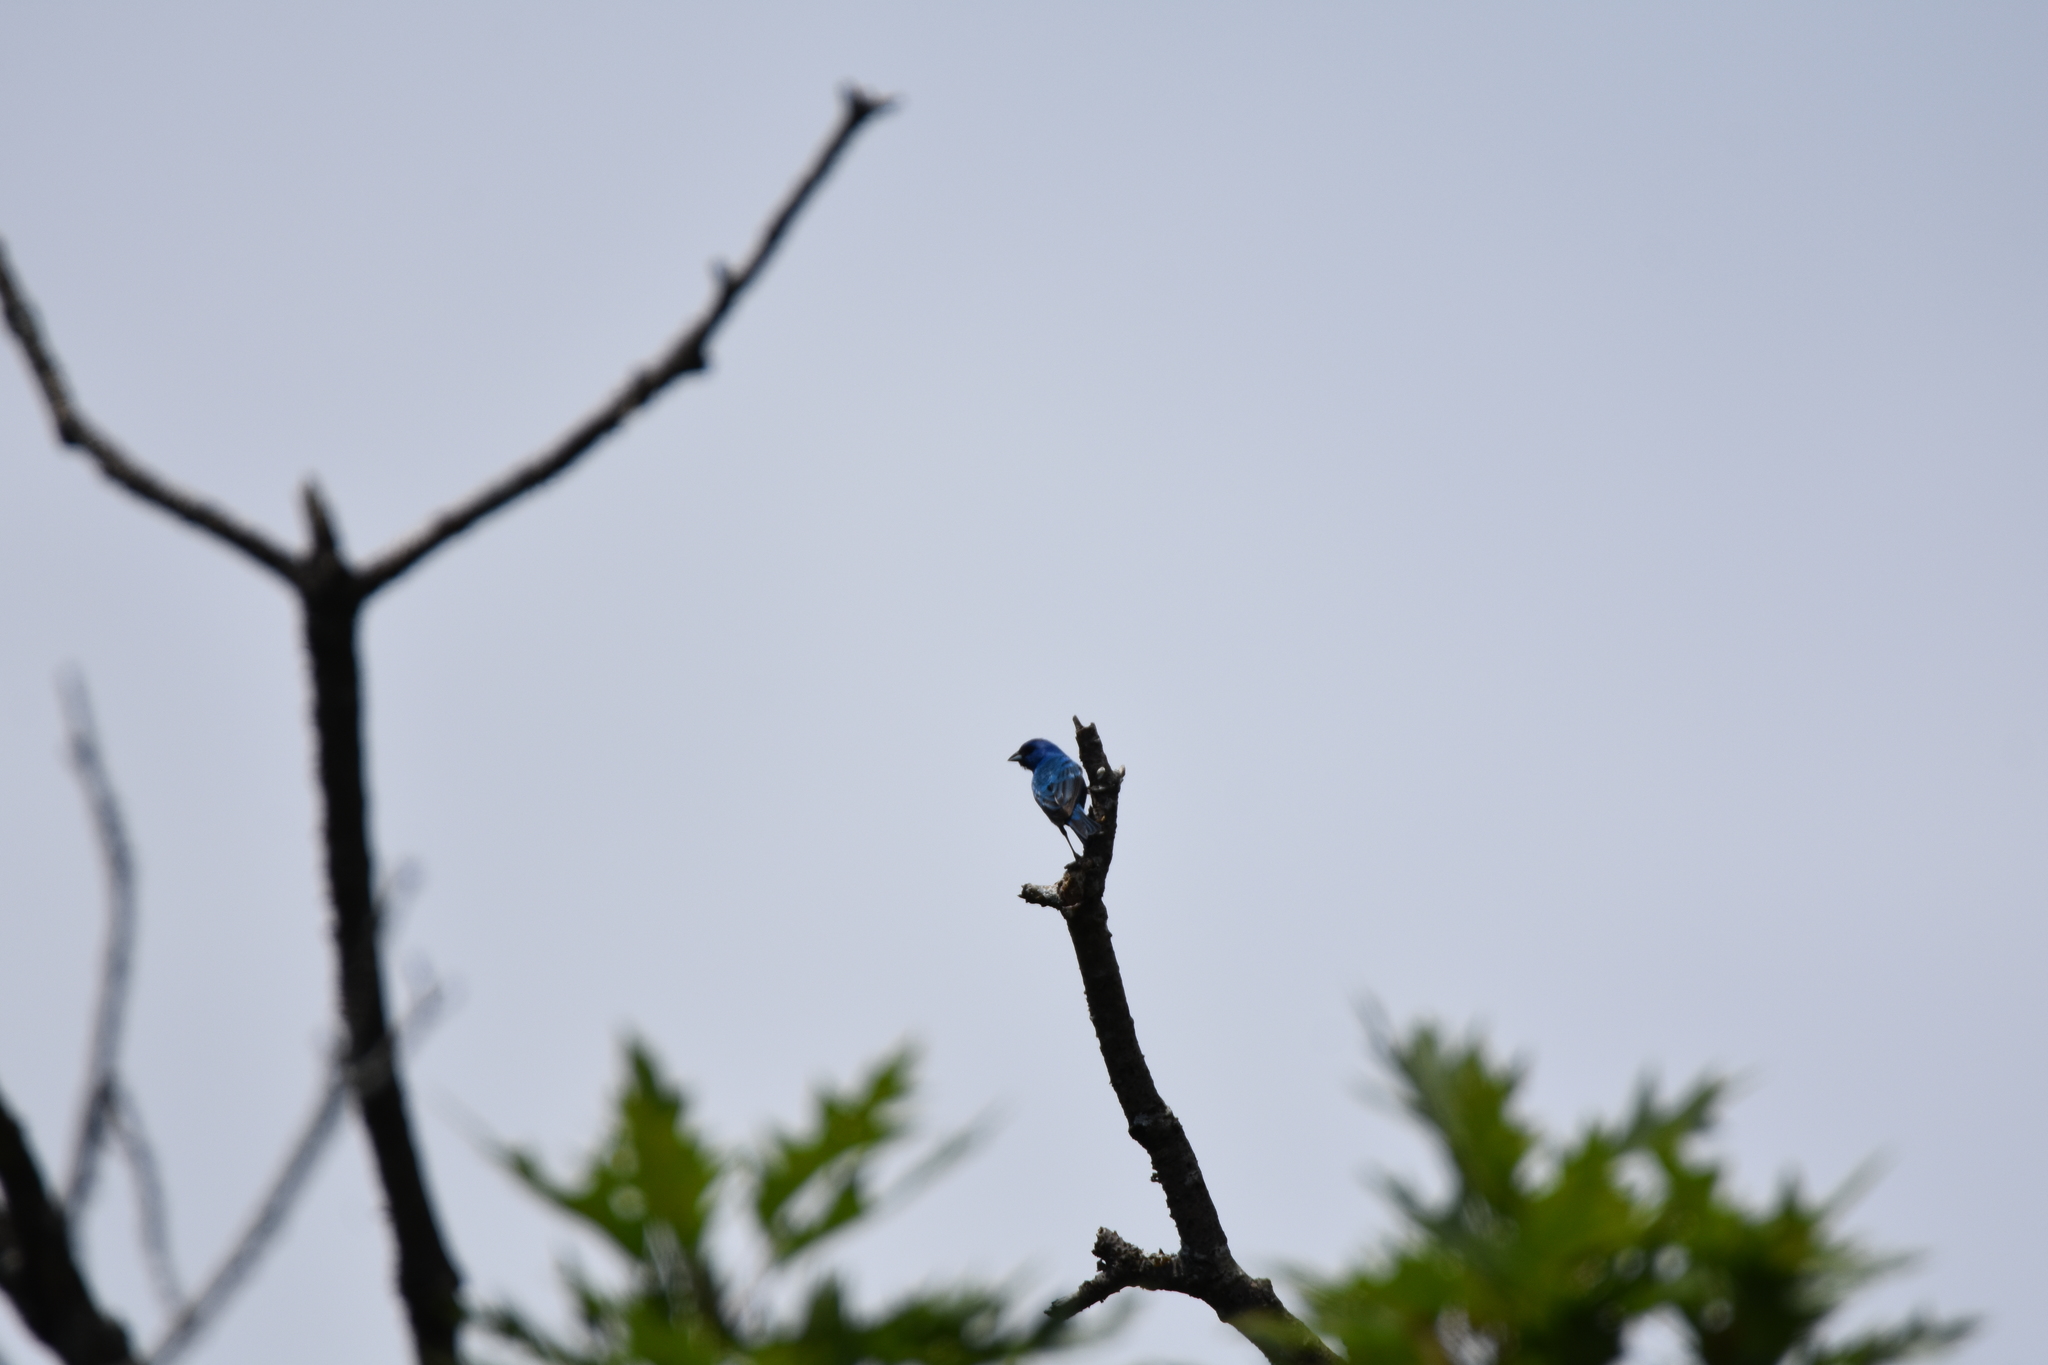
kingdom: Animalia
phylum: Chordata
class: Aves
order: Passeriformes
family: Cardinalidae
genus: Passerina
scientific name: Passerina cyanea
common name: Indigo bunting
